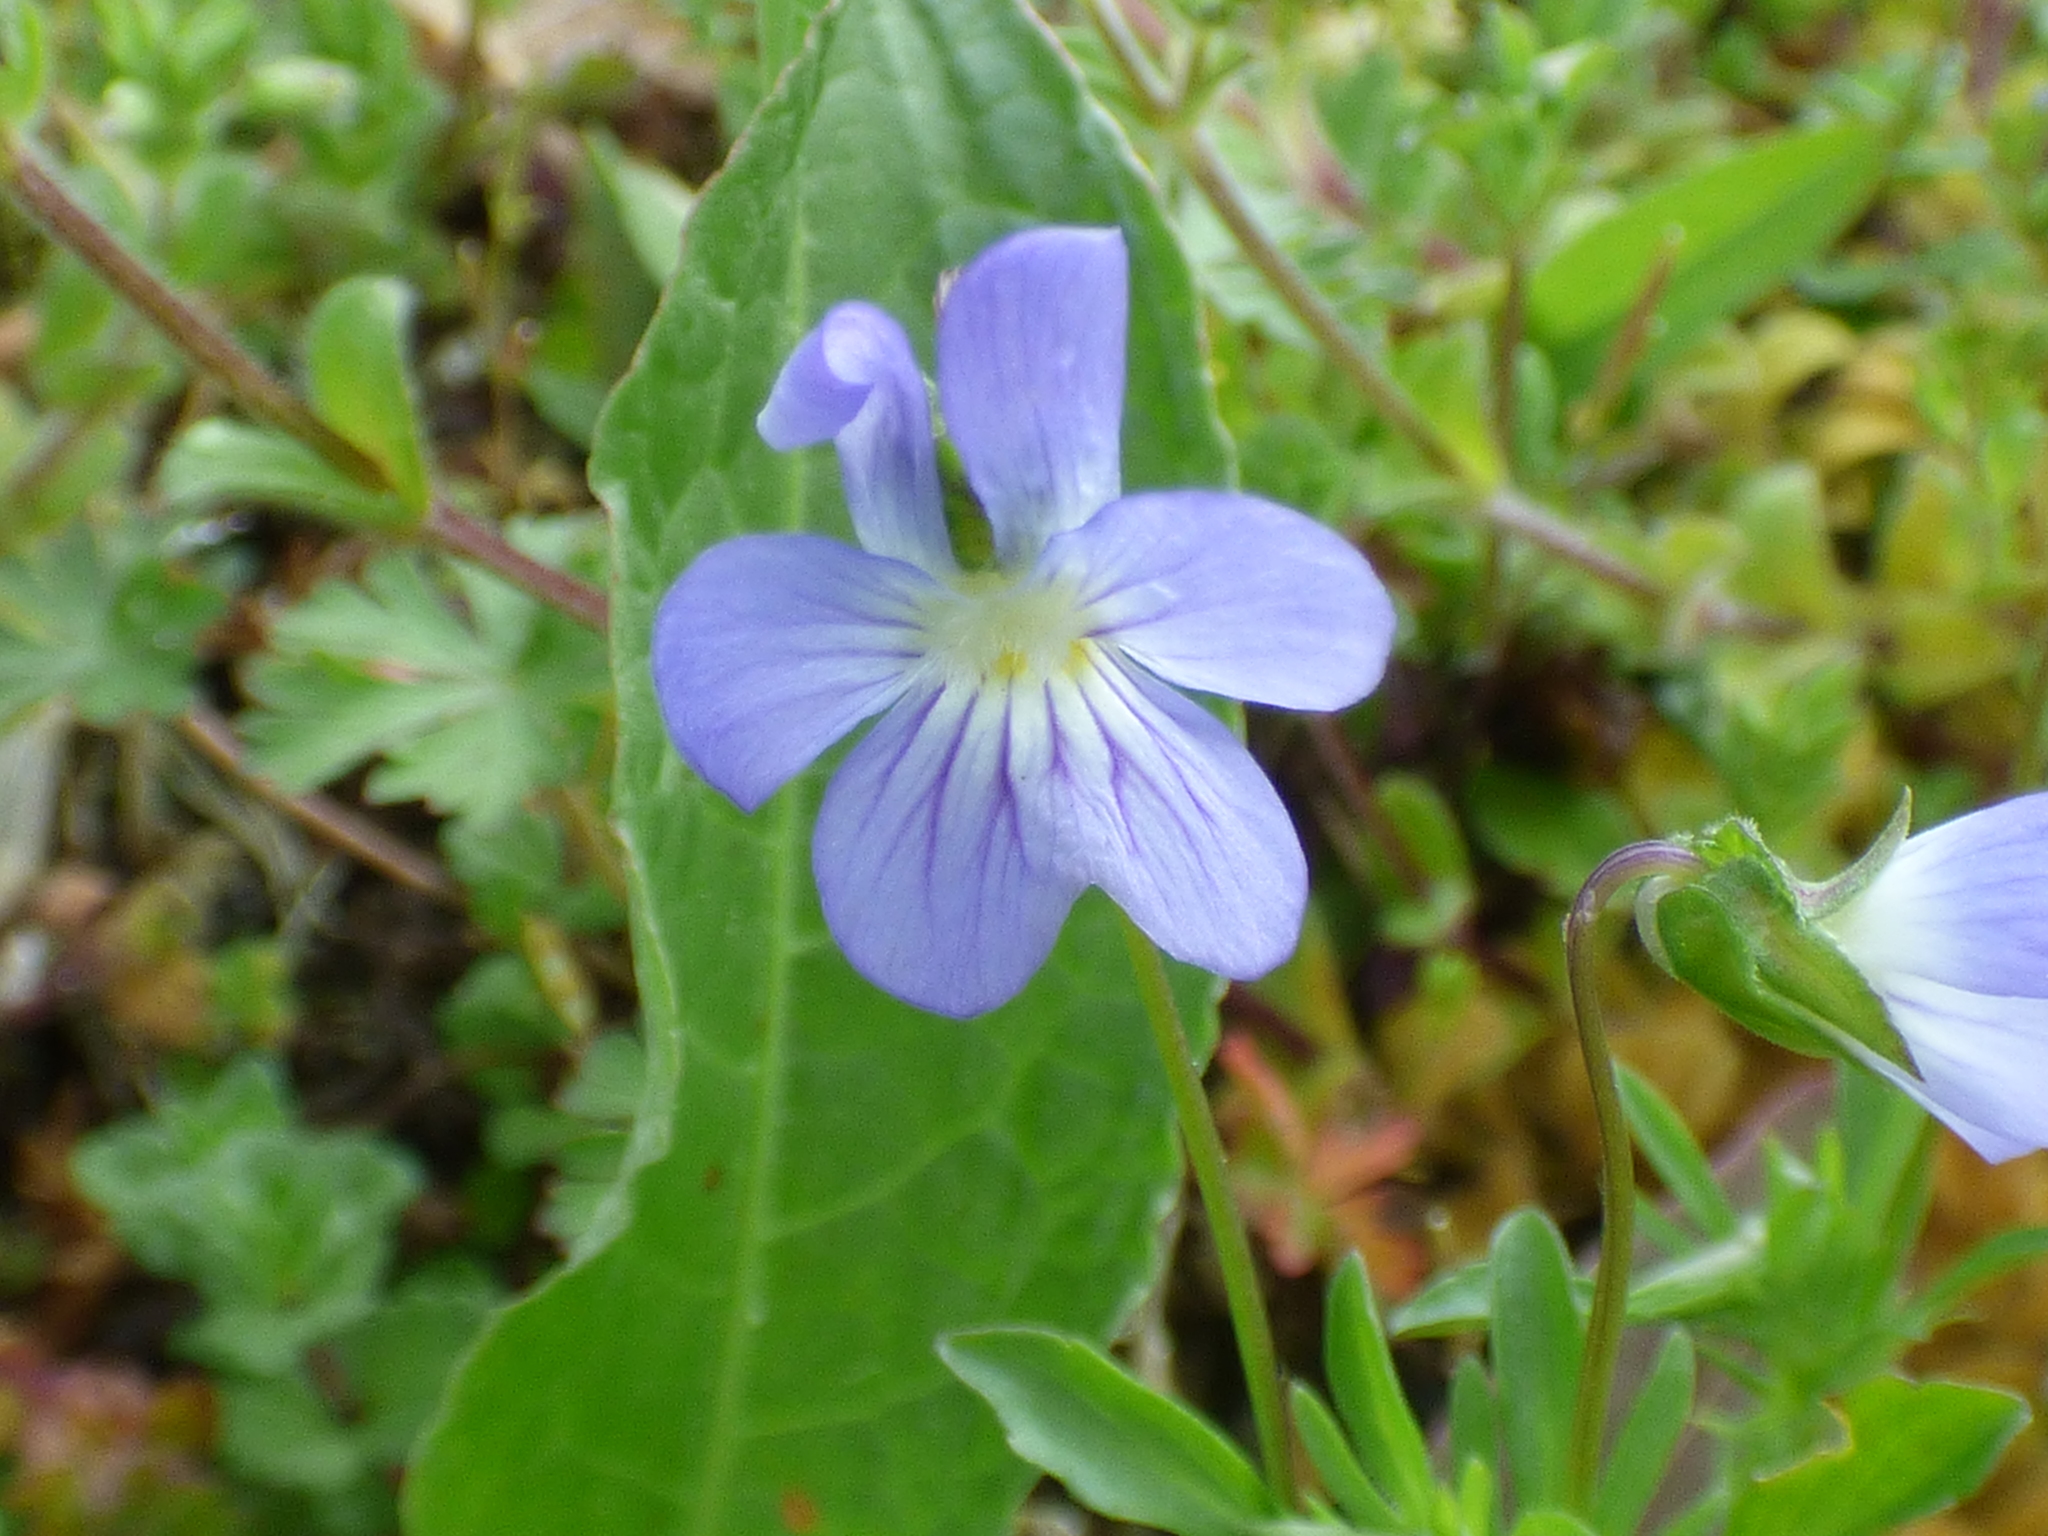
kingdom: Plantae
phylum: Tracheophyta
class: Magnoliopsida
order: Malpighiales
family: Violaceae
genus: Viola
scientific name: Viola rafinesquei
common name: American field pansy
